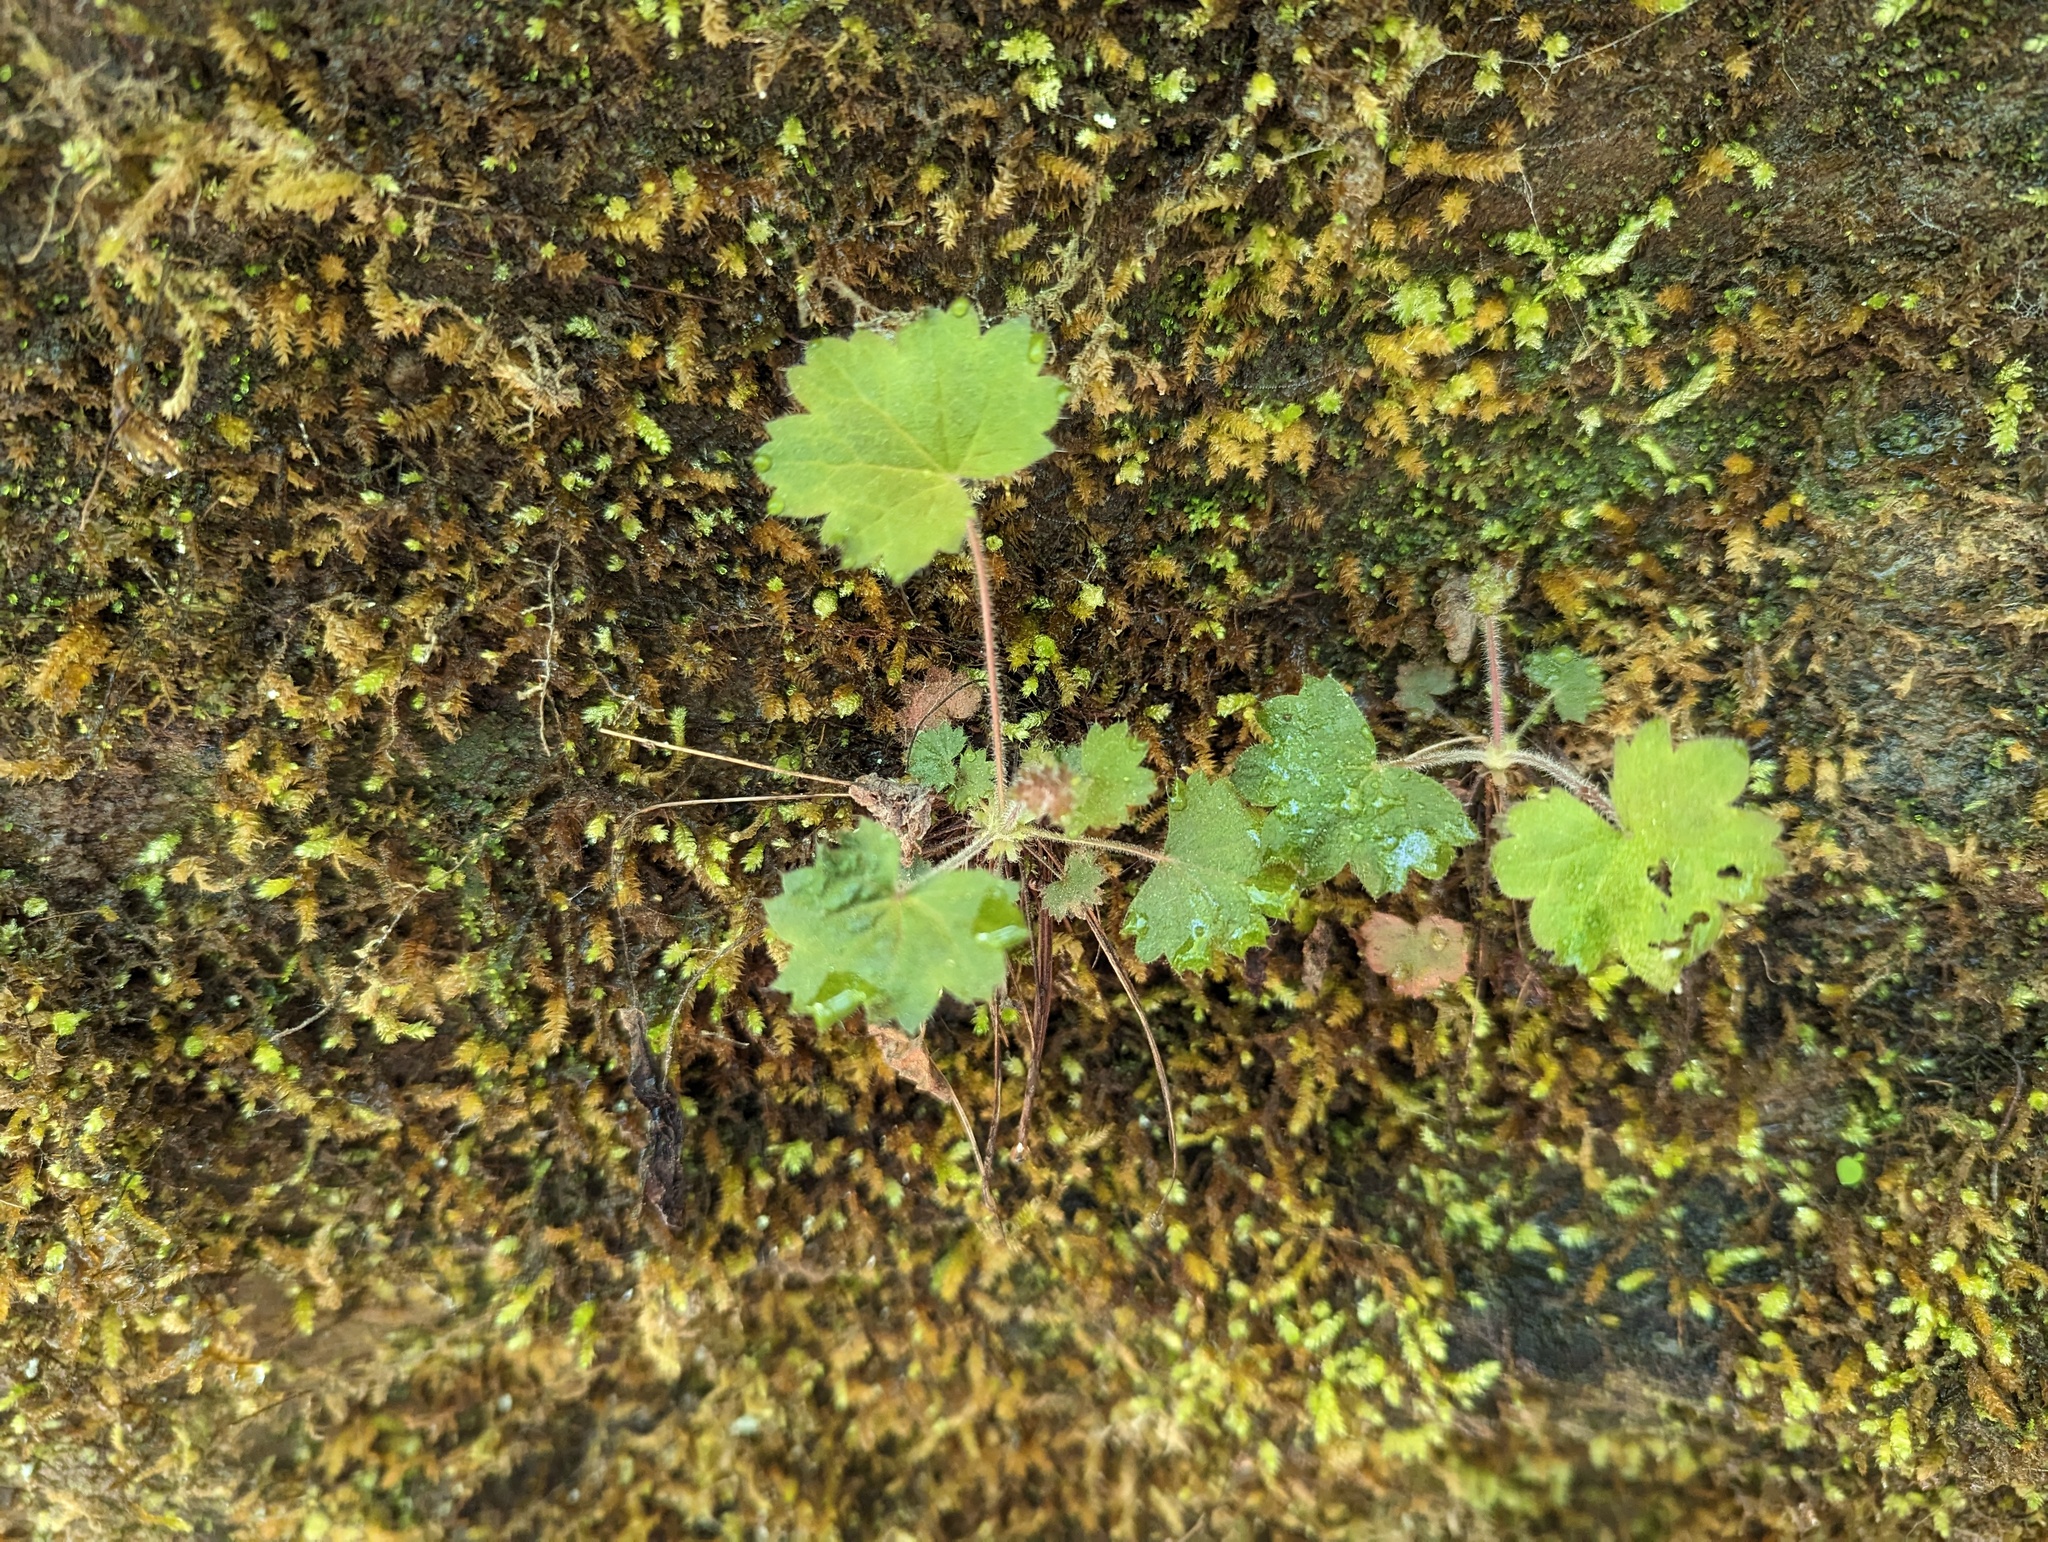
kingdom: Plantae
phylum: Tracheophyta
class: Magnoliopsida
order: Saxifragales
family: Saxifragaceae
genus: Heuchera
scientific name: Heuchera missouriensis
